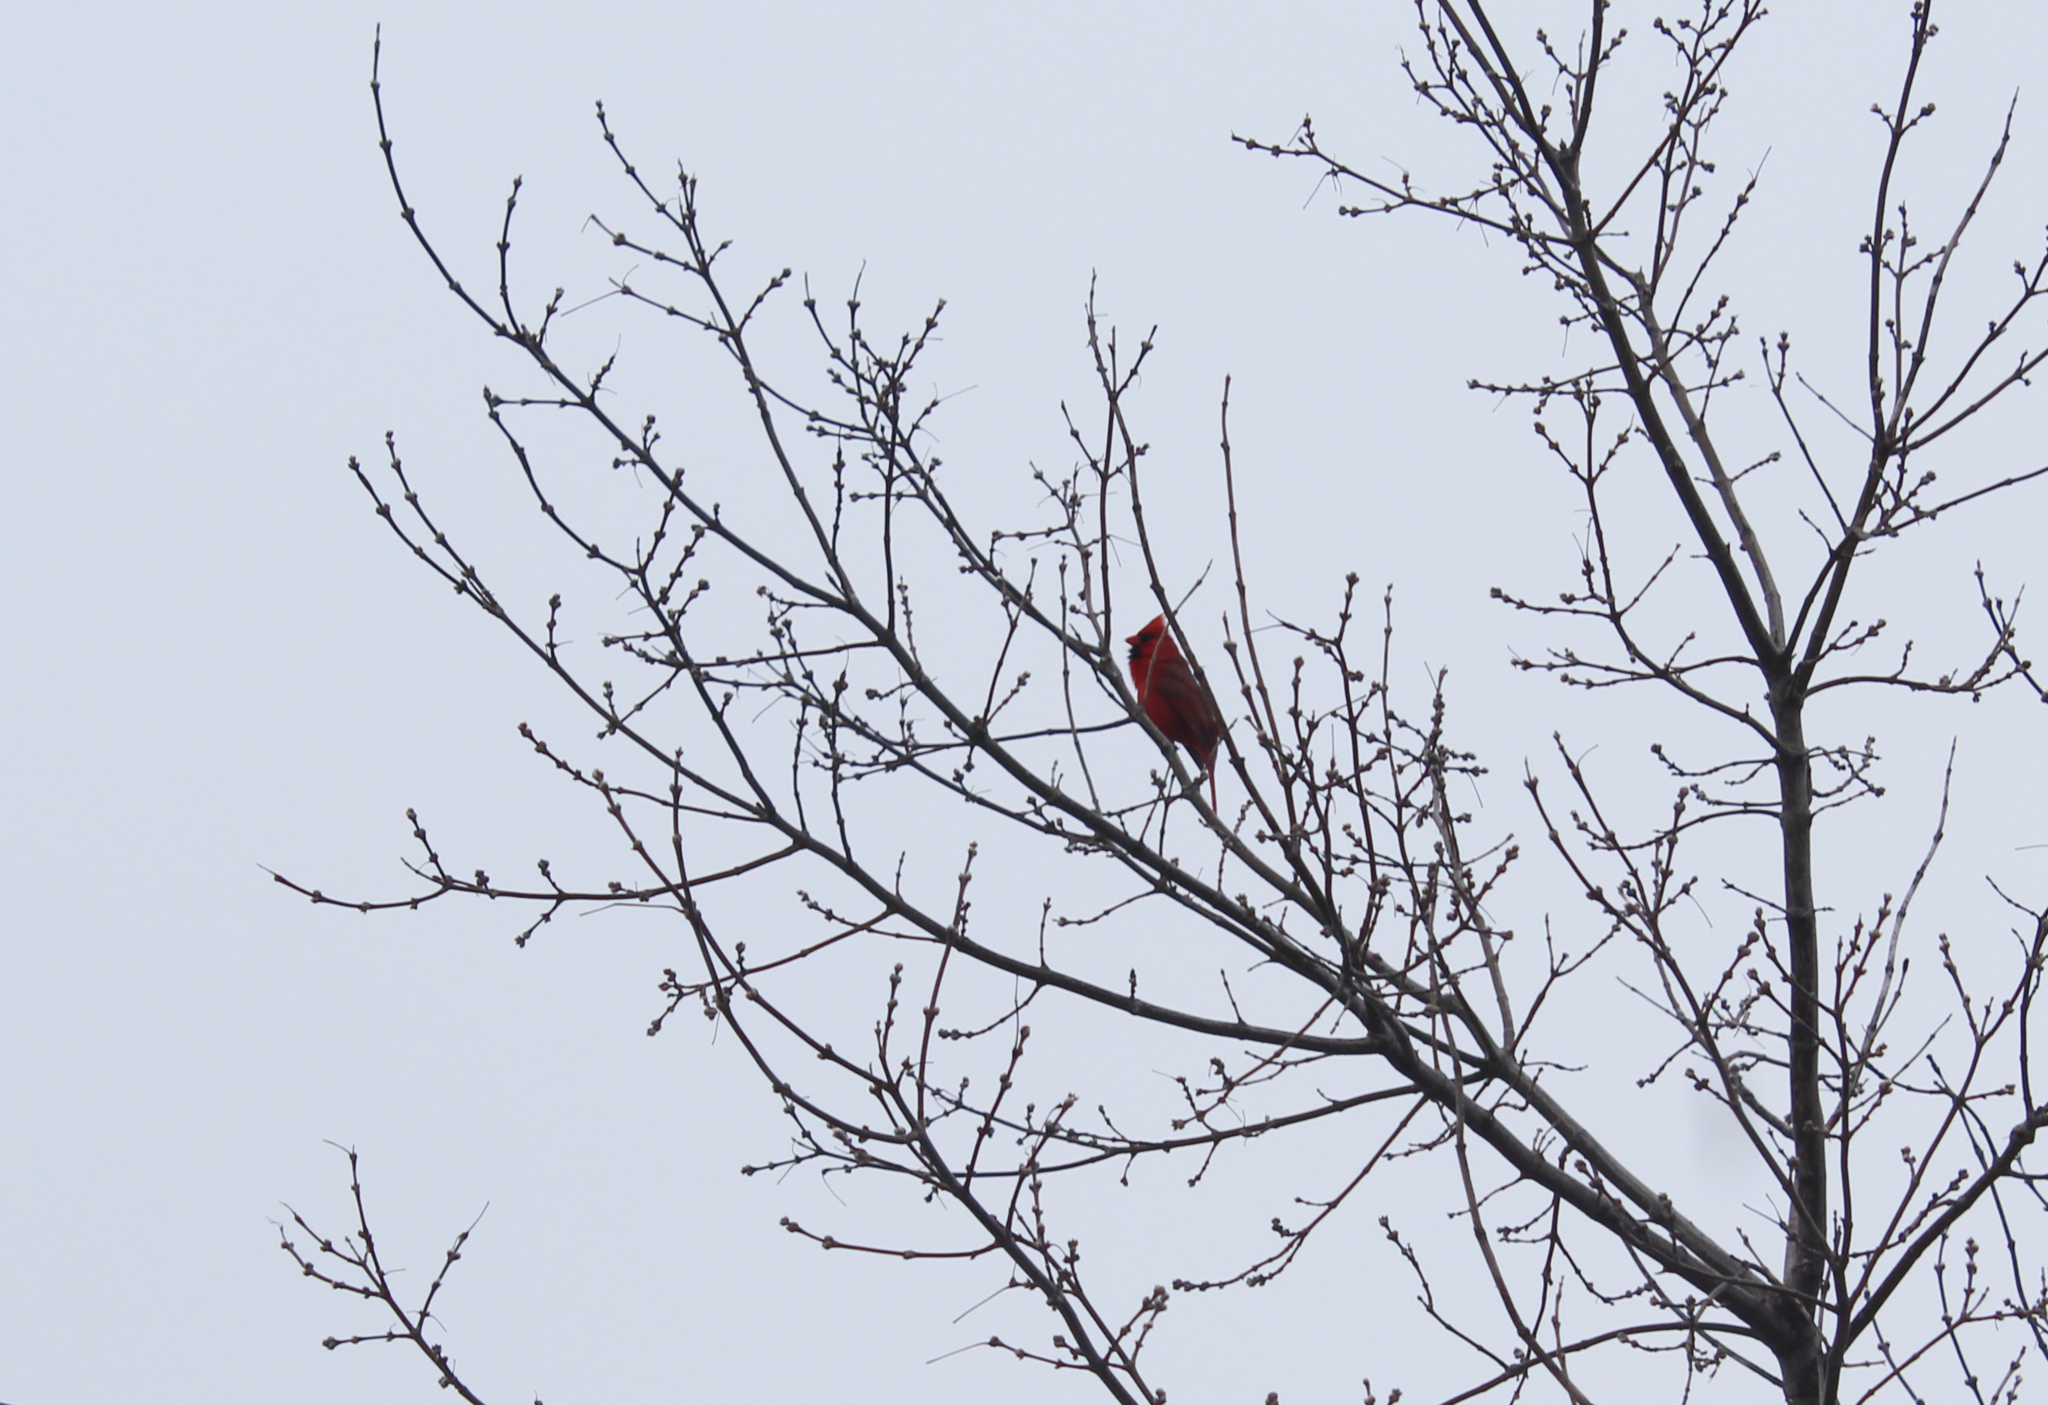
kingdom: Animalia
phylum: Chordata
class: Aves
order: Passeriformes
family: Cardinalidae
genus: Cardinalis
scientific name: Cardinalis cardinalis
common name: Northern cardinal
